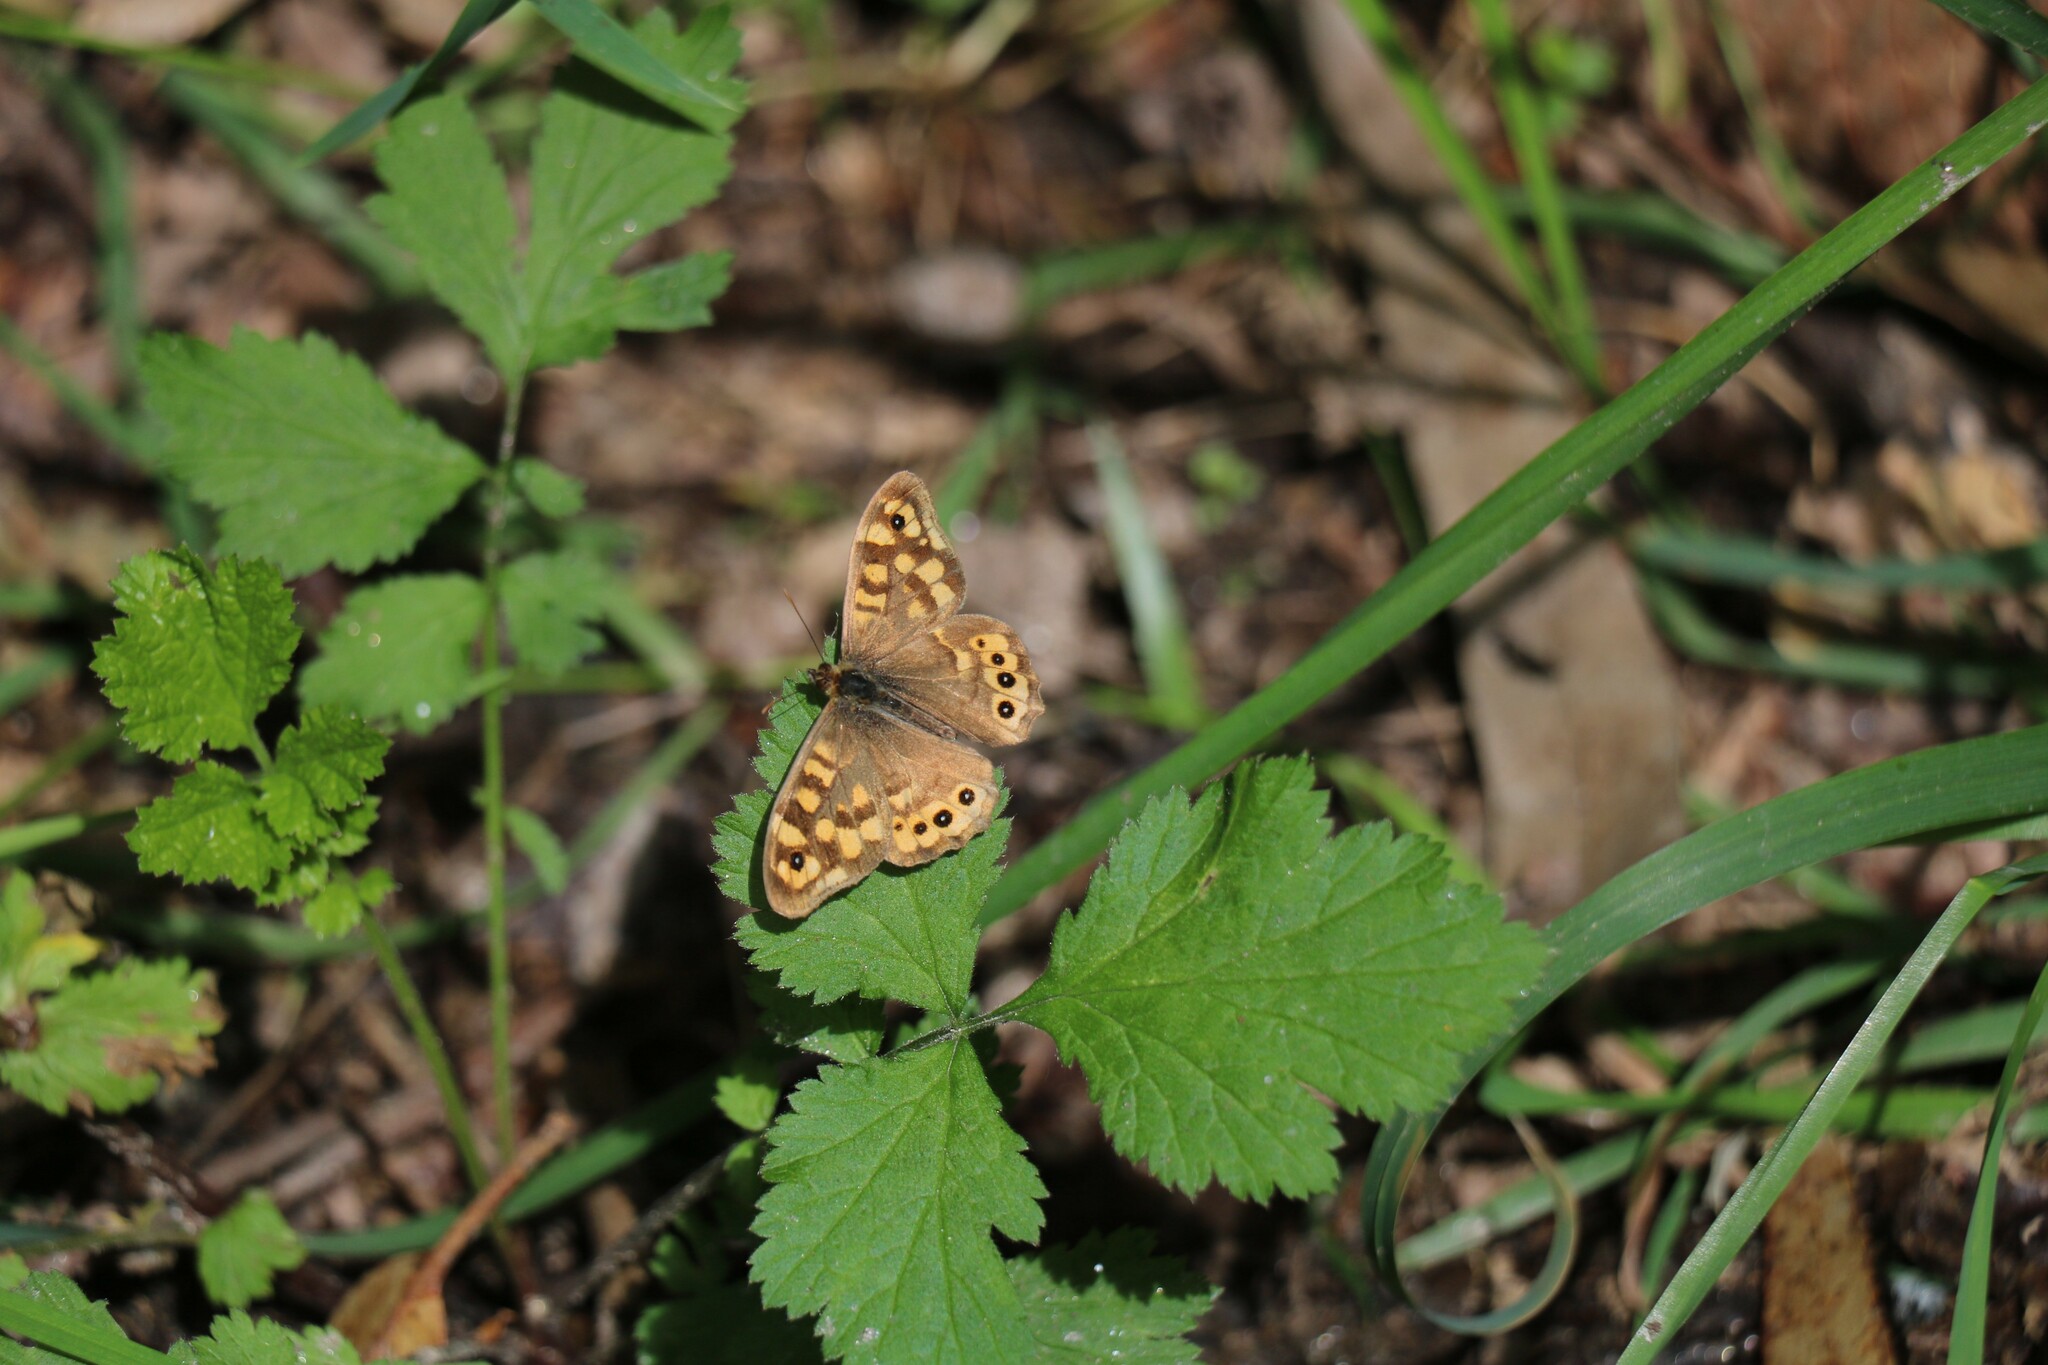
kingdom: Animalia
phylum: Arthropoda
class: Insecta
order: Lepidoptera
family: Nymphalidae
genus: Pararge
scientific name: Pararge aegeria
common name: Speckled wood
